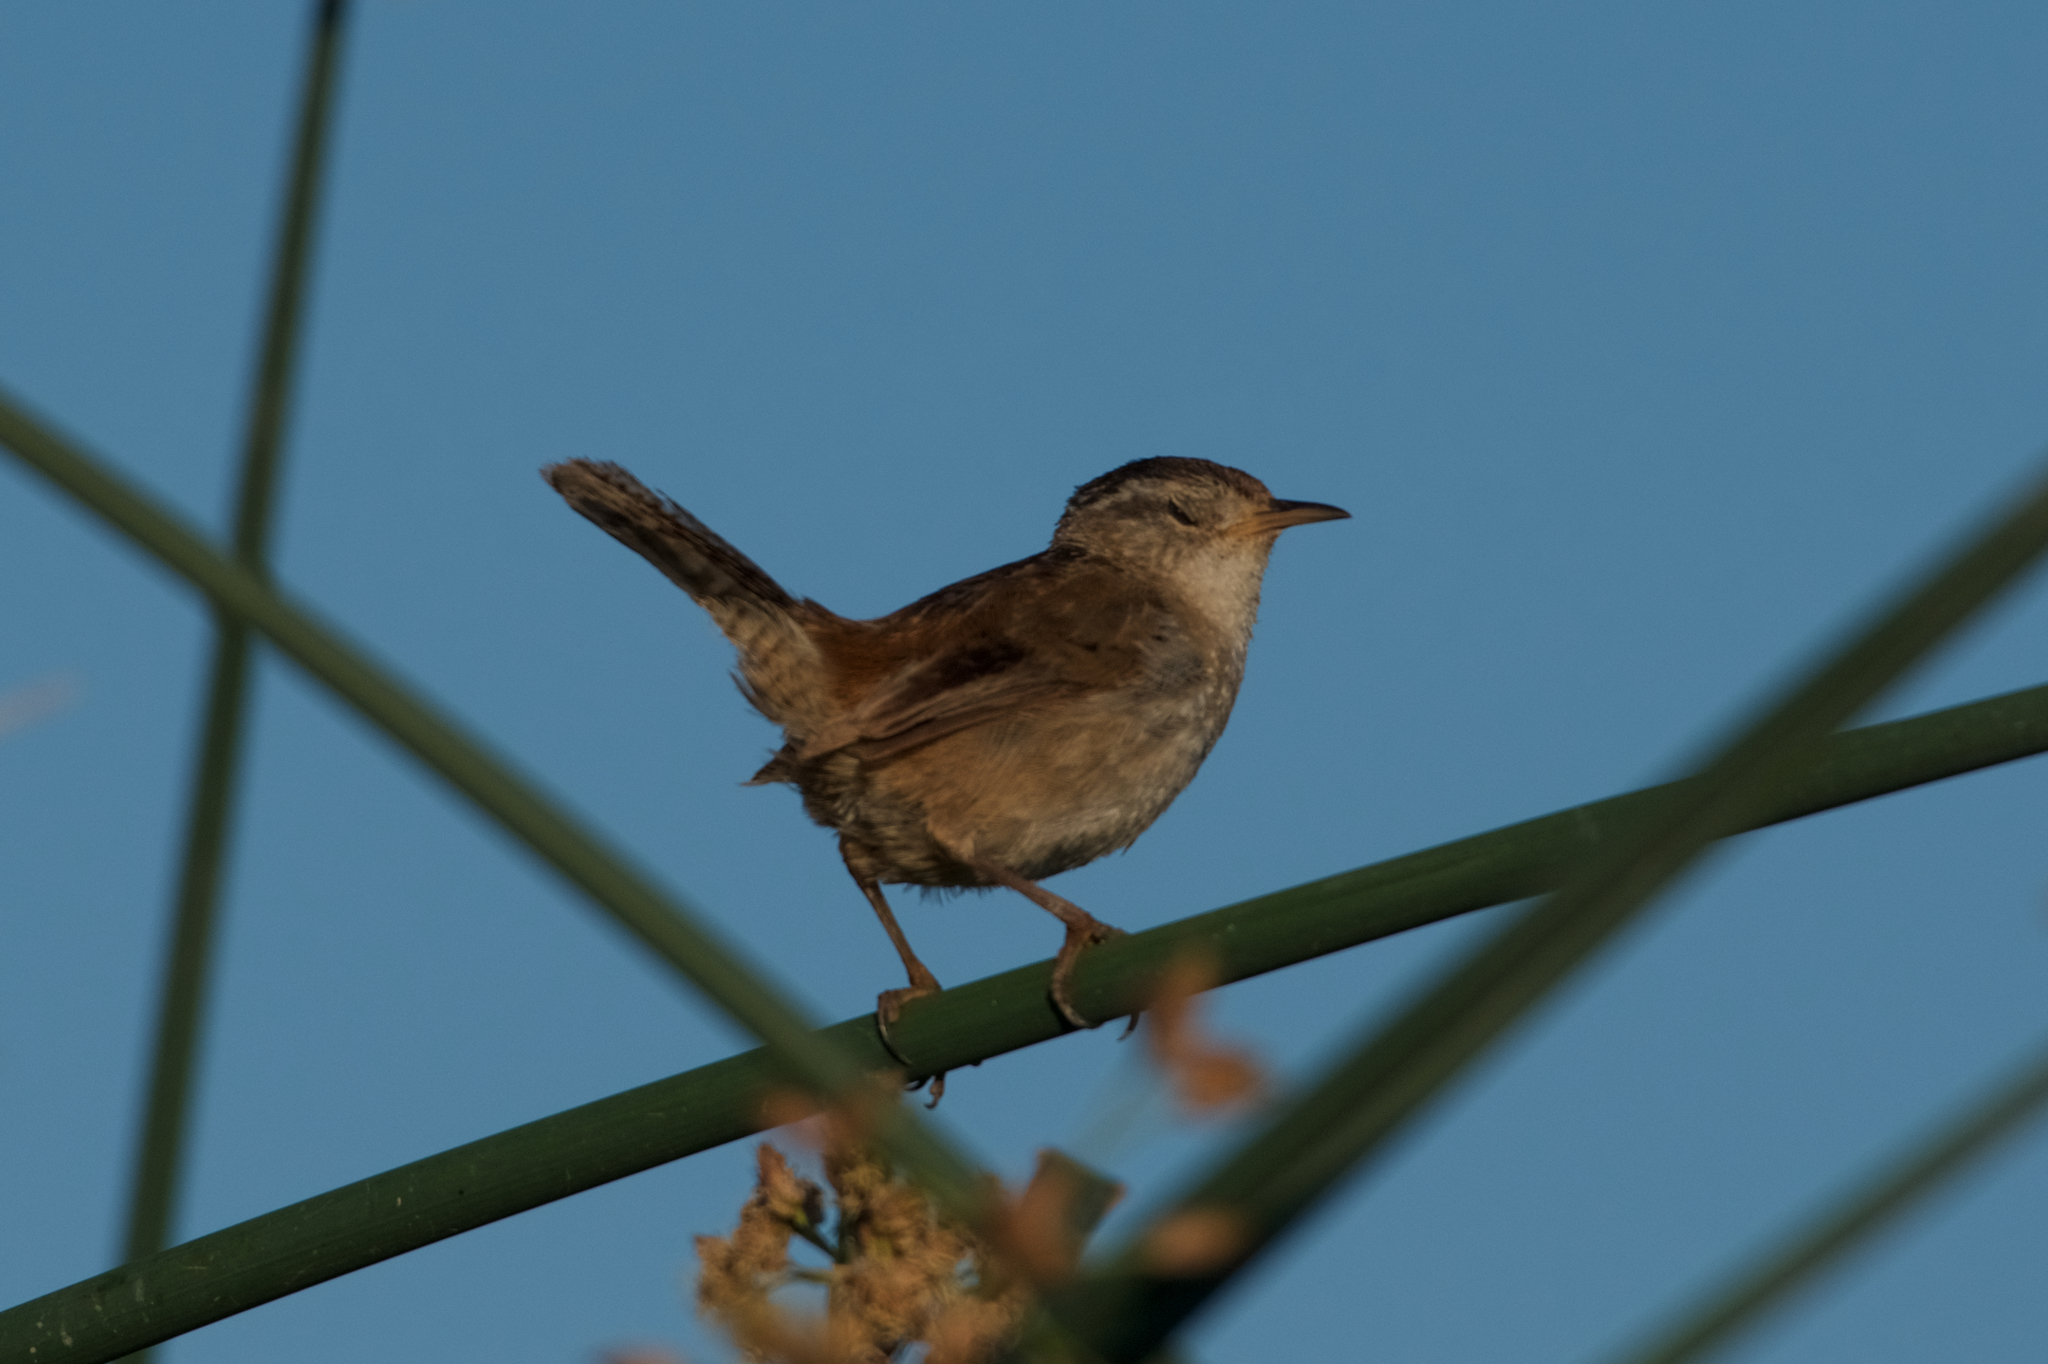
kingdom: Animalia
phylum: Chordata
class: Aves
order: Passeriformes
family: Troglodytidae
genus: Cistothorus
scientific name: Cistothorus palustris
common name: Marsh wren
